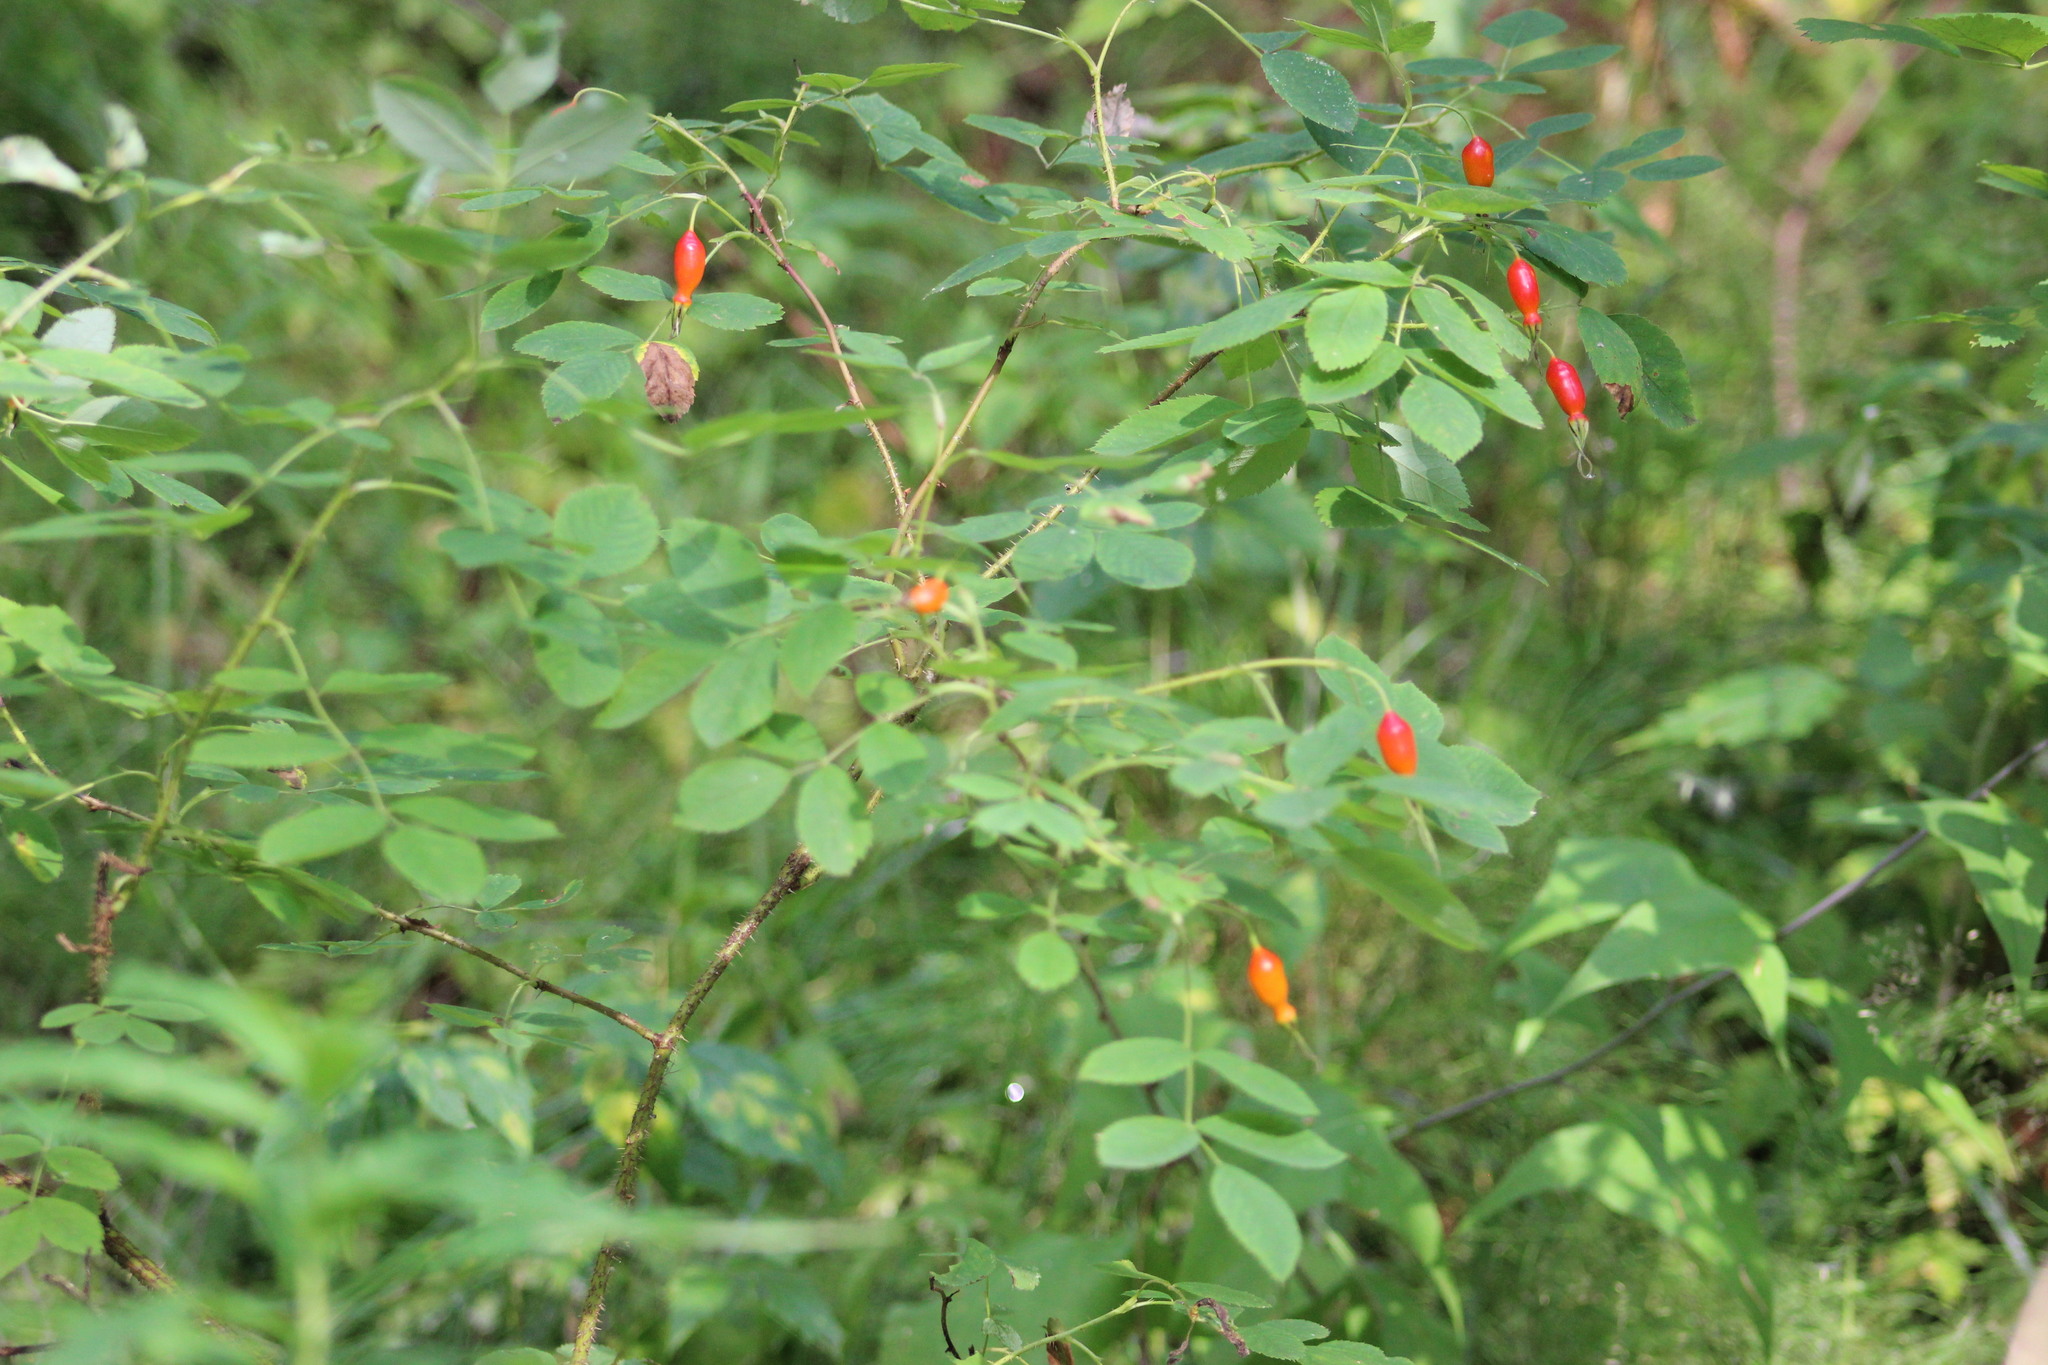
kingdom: Plantae
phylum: Tracheophyta
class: Magnoliopsida
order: Rosales
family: Rosaceae
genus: Rosa
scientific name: Rosa acicularis
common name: Prickly rose
